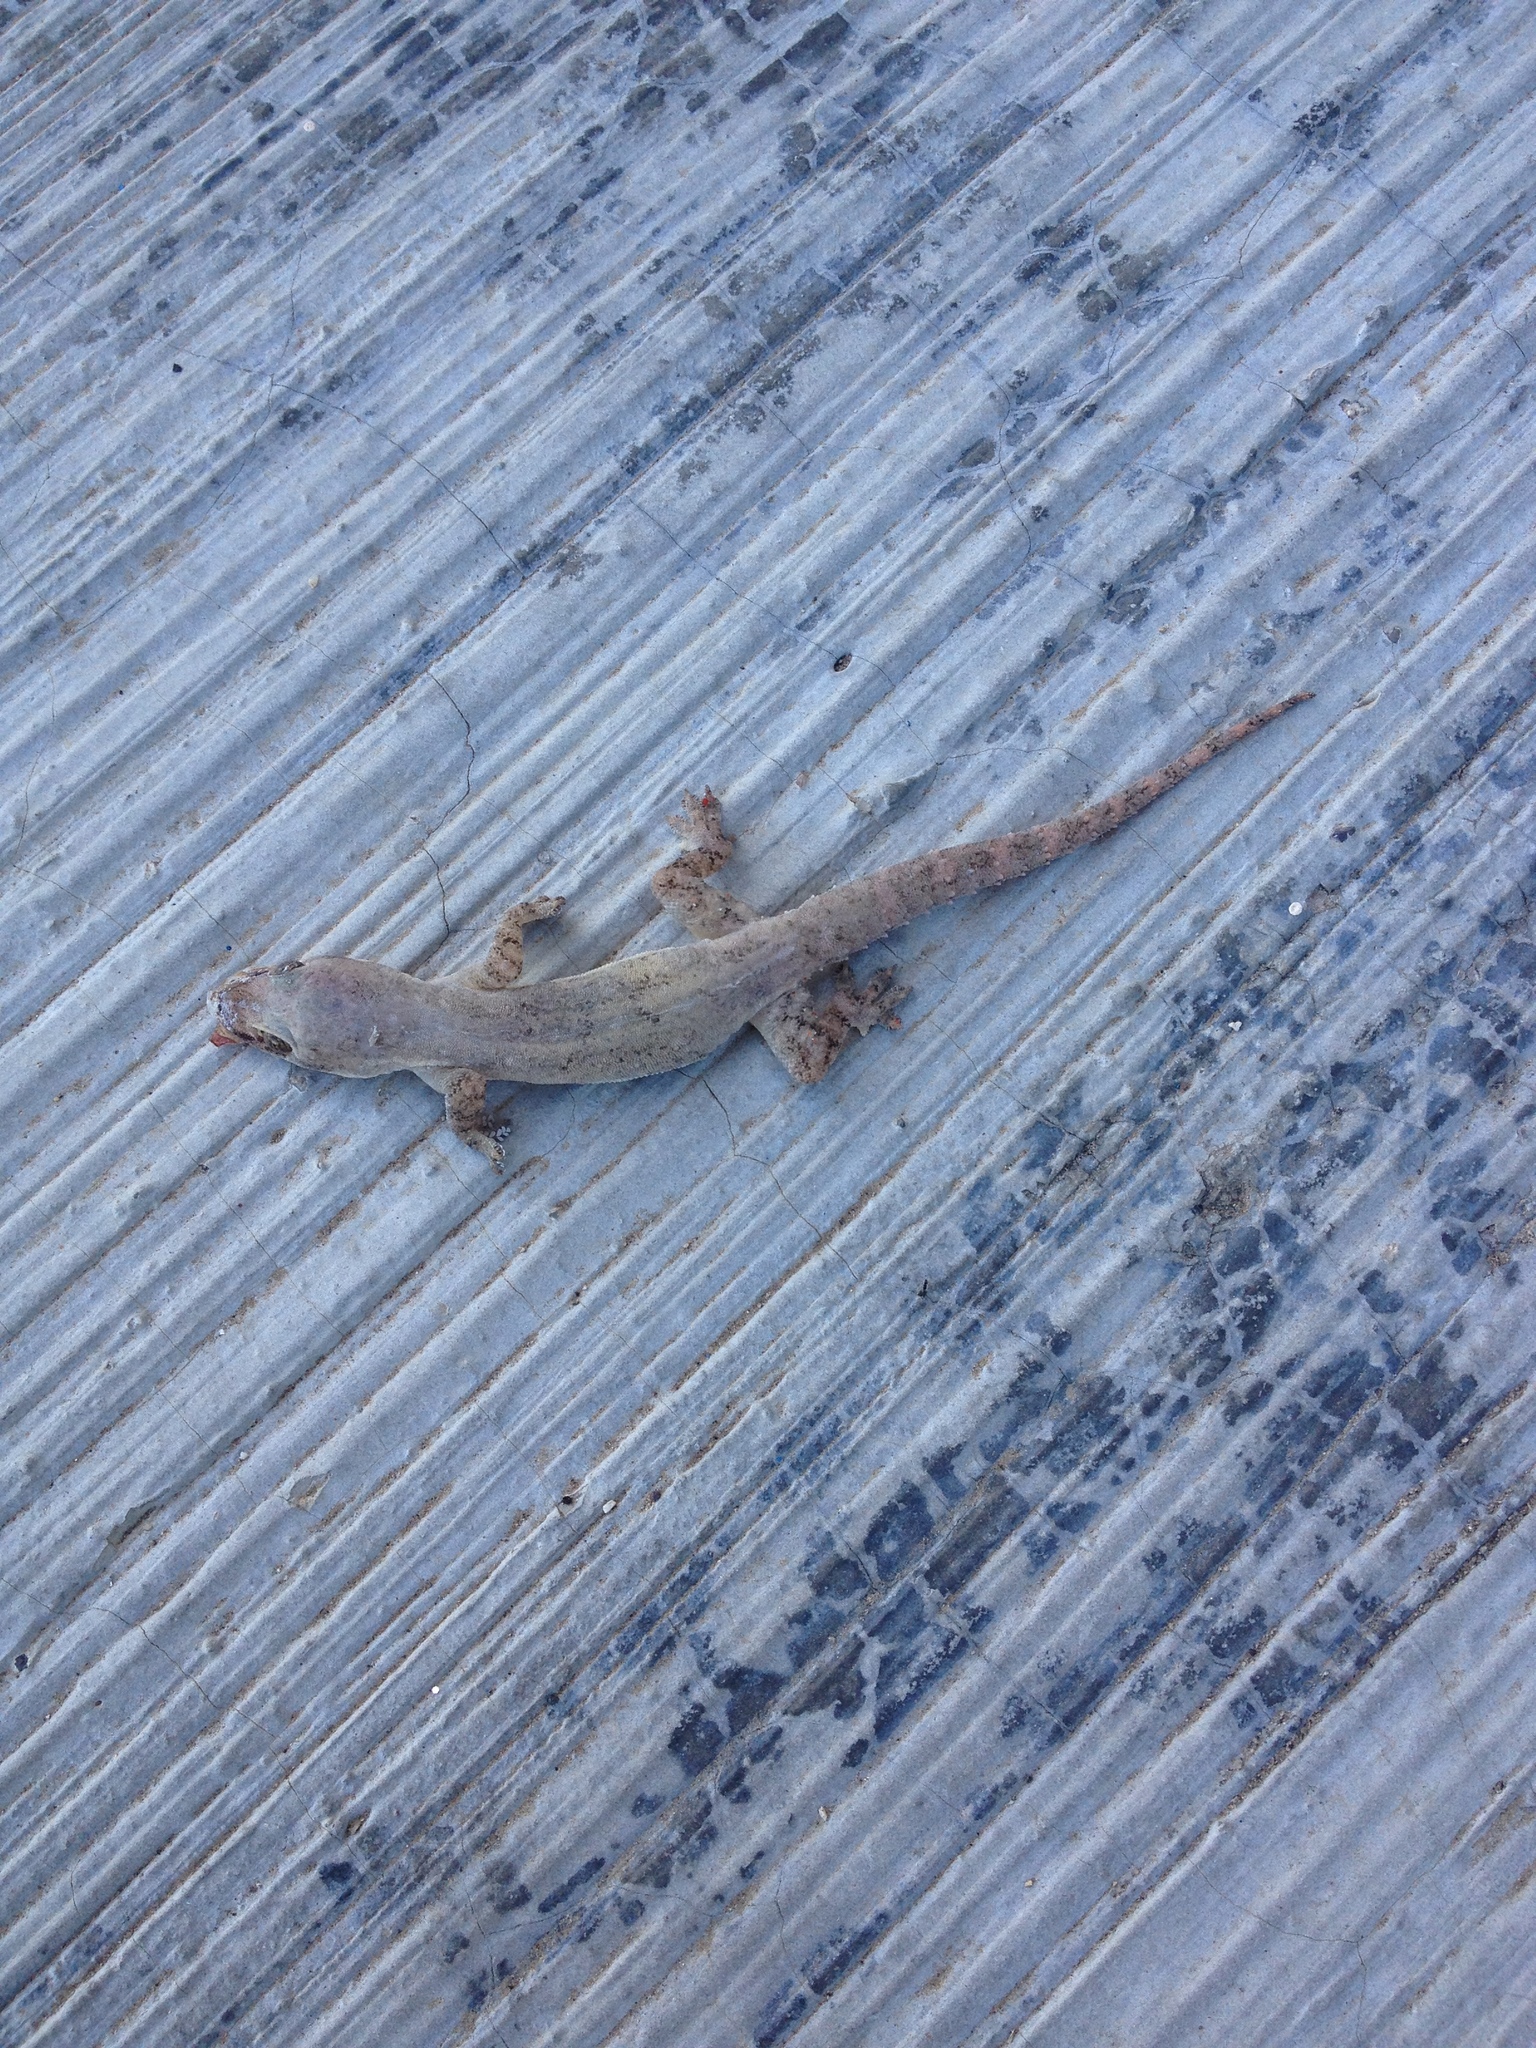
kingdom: Animalia
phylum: Chordata
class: Squamata
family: Gekkonidae
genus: Hemidactylus
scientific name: Hemidactylus frenatus
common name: Common house gecko
